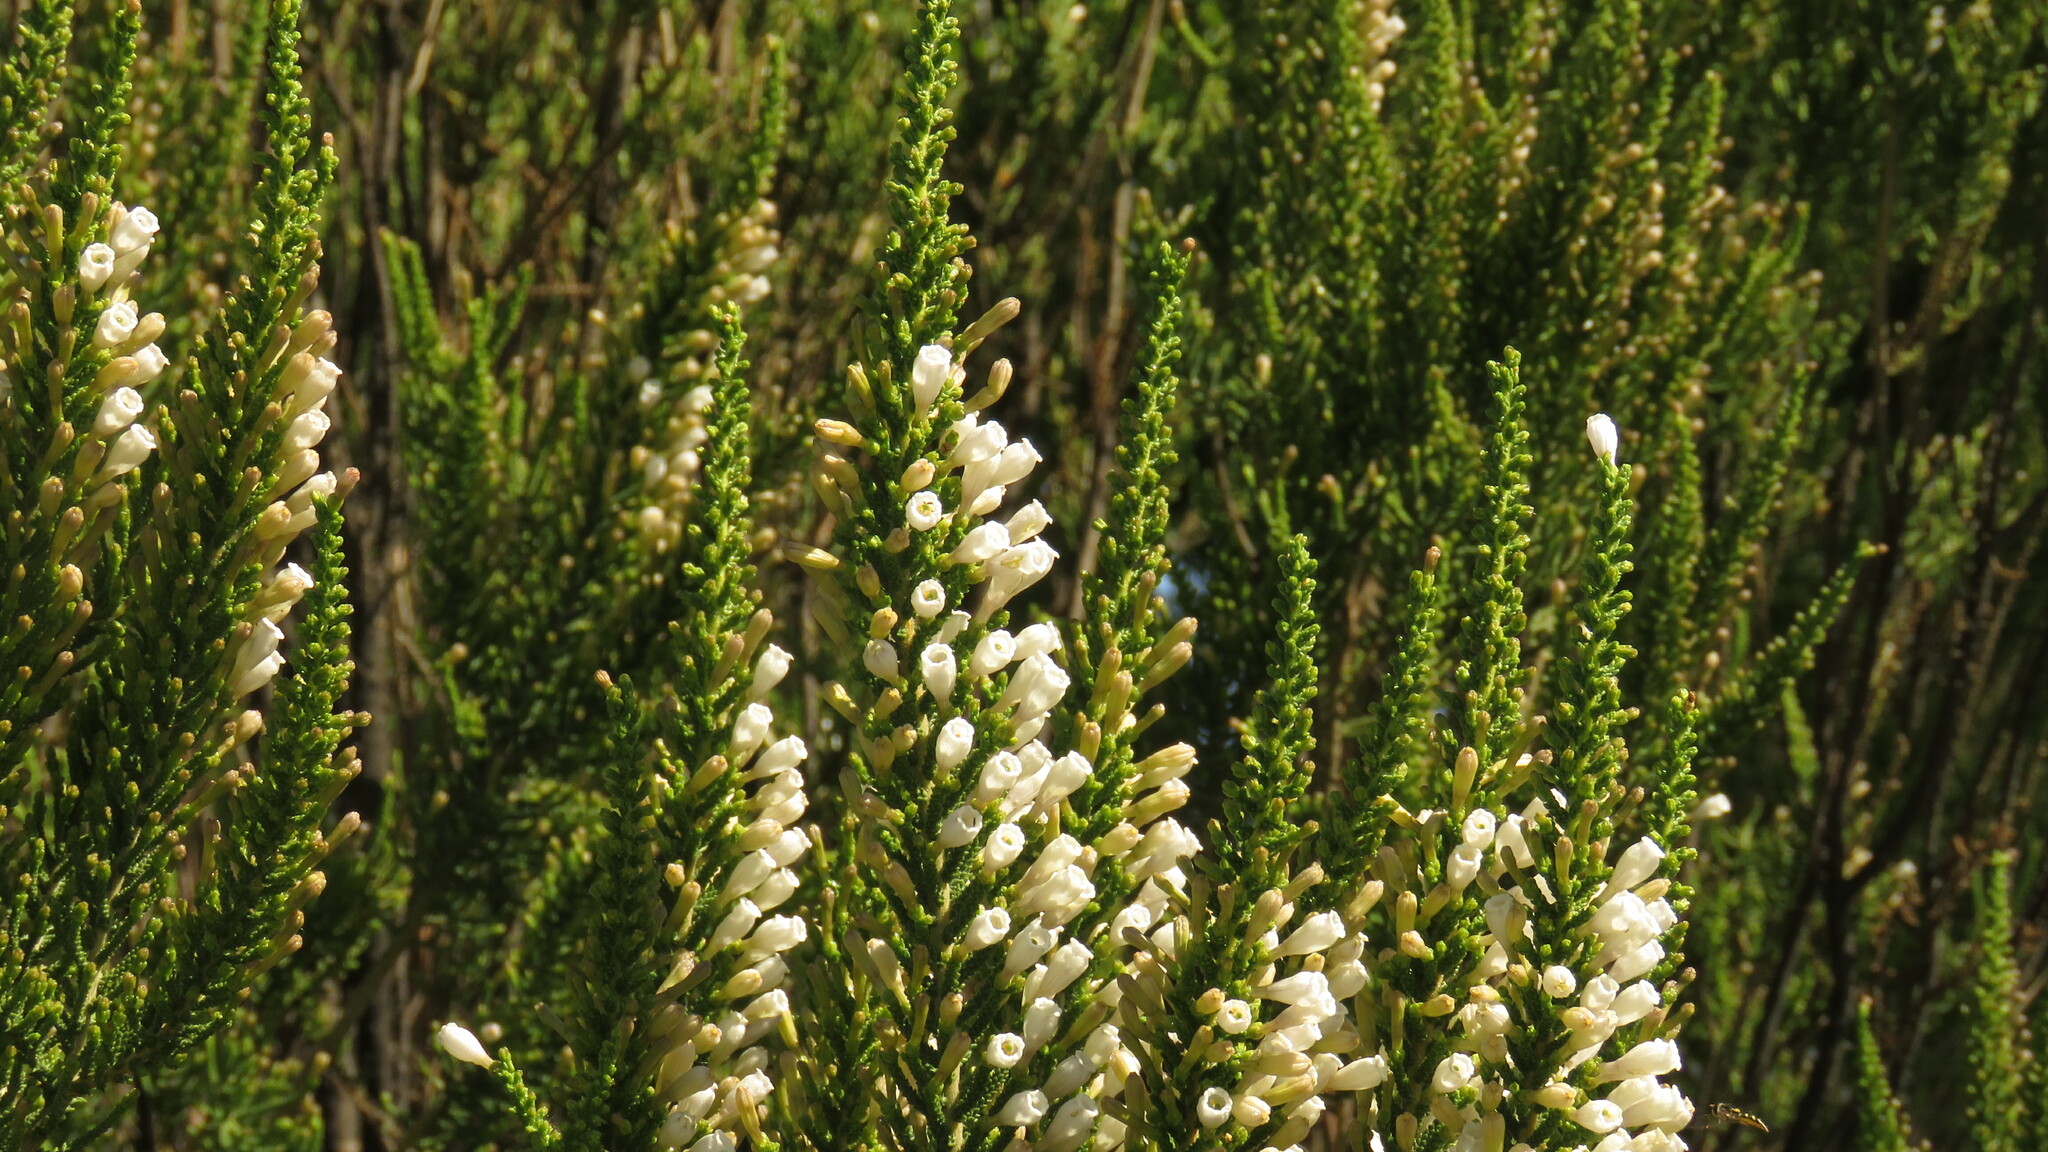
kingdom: Plantae
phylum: Tracheophyta
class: Magnoliopsida
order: Solanales
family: Solanaceae
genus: Fabiana
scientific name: Fabiana imbricata
